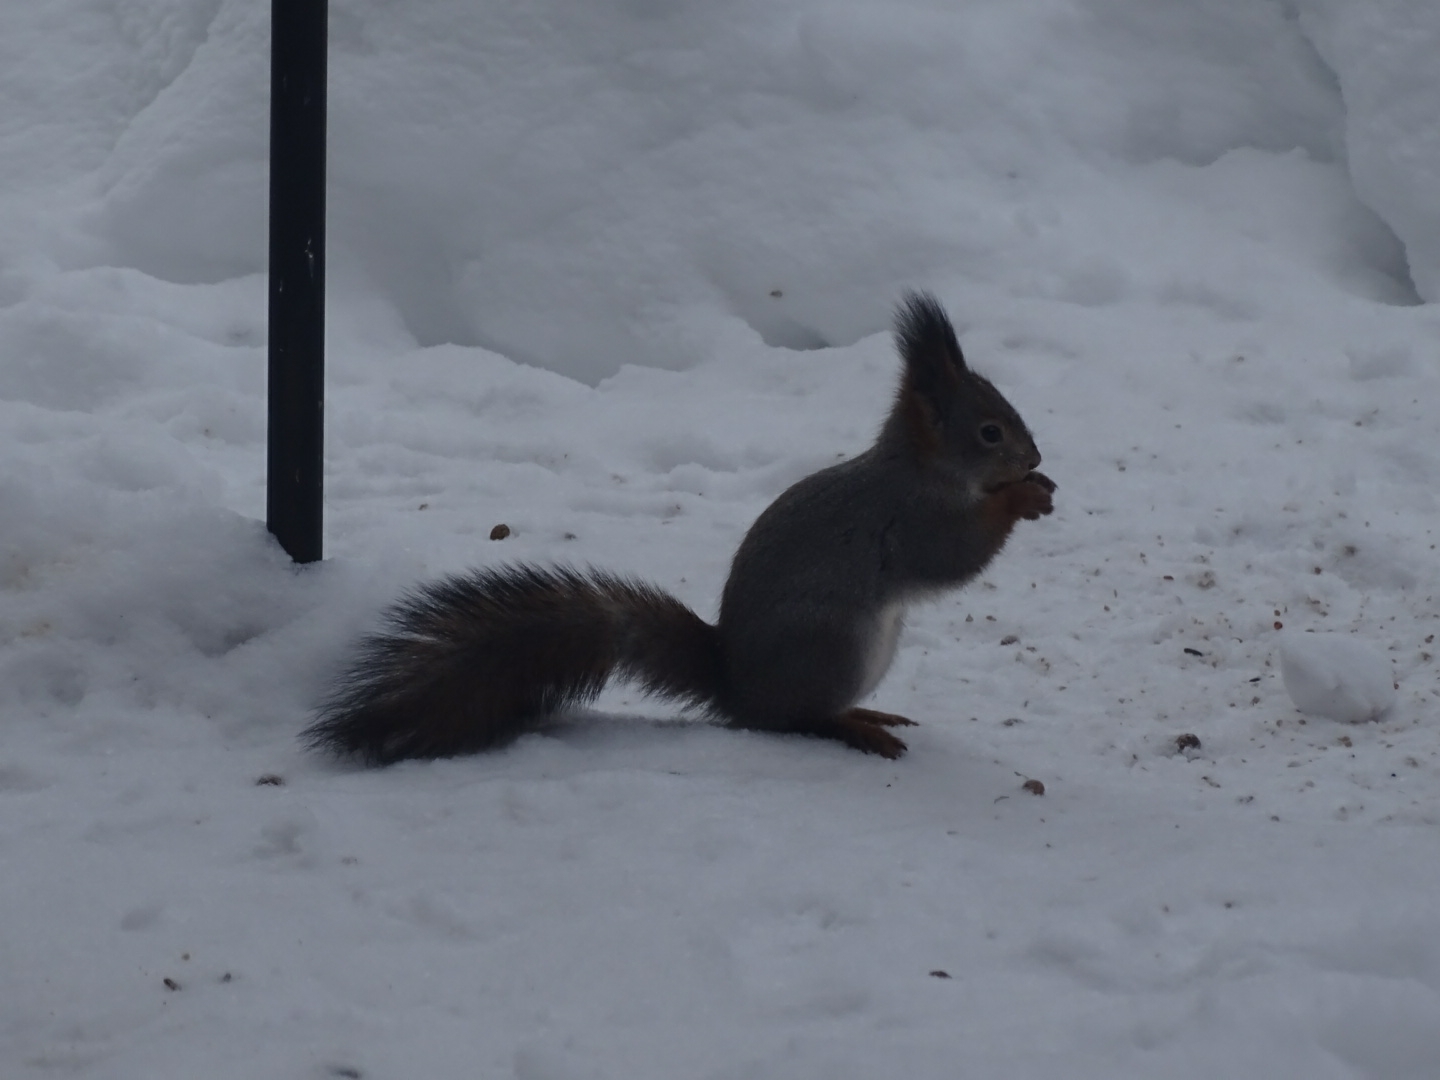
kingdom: Animalia
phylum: Chordata
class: Mammalia
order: Rodentia
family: Sciuridae
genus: Sciurus
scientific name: Sciurus vulgaris
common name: Eurasian red squirrel
